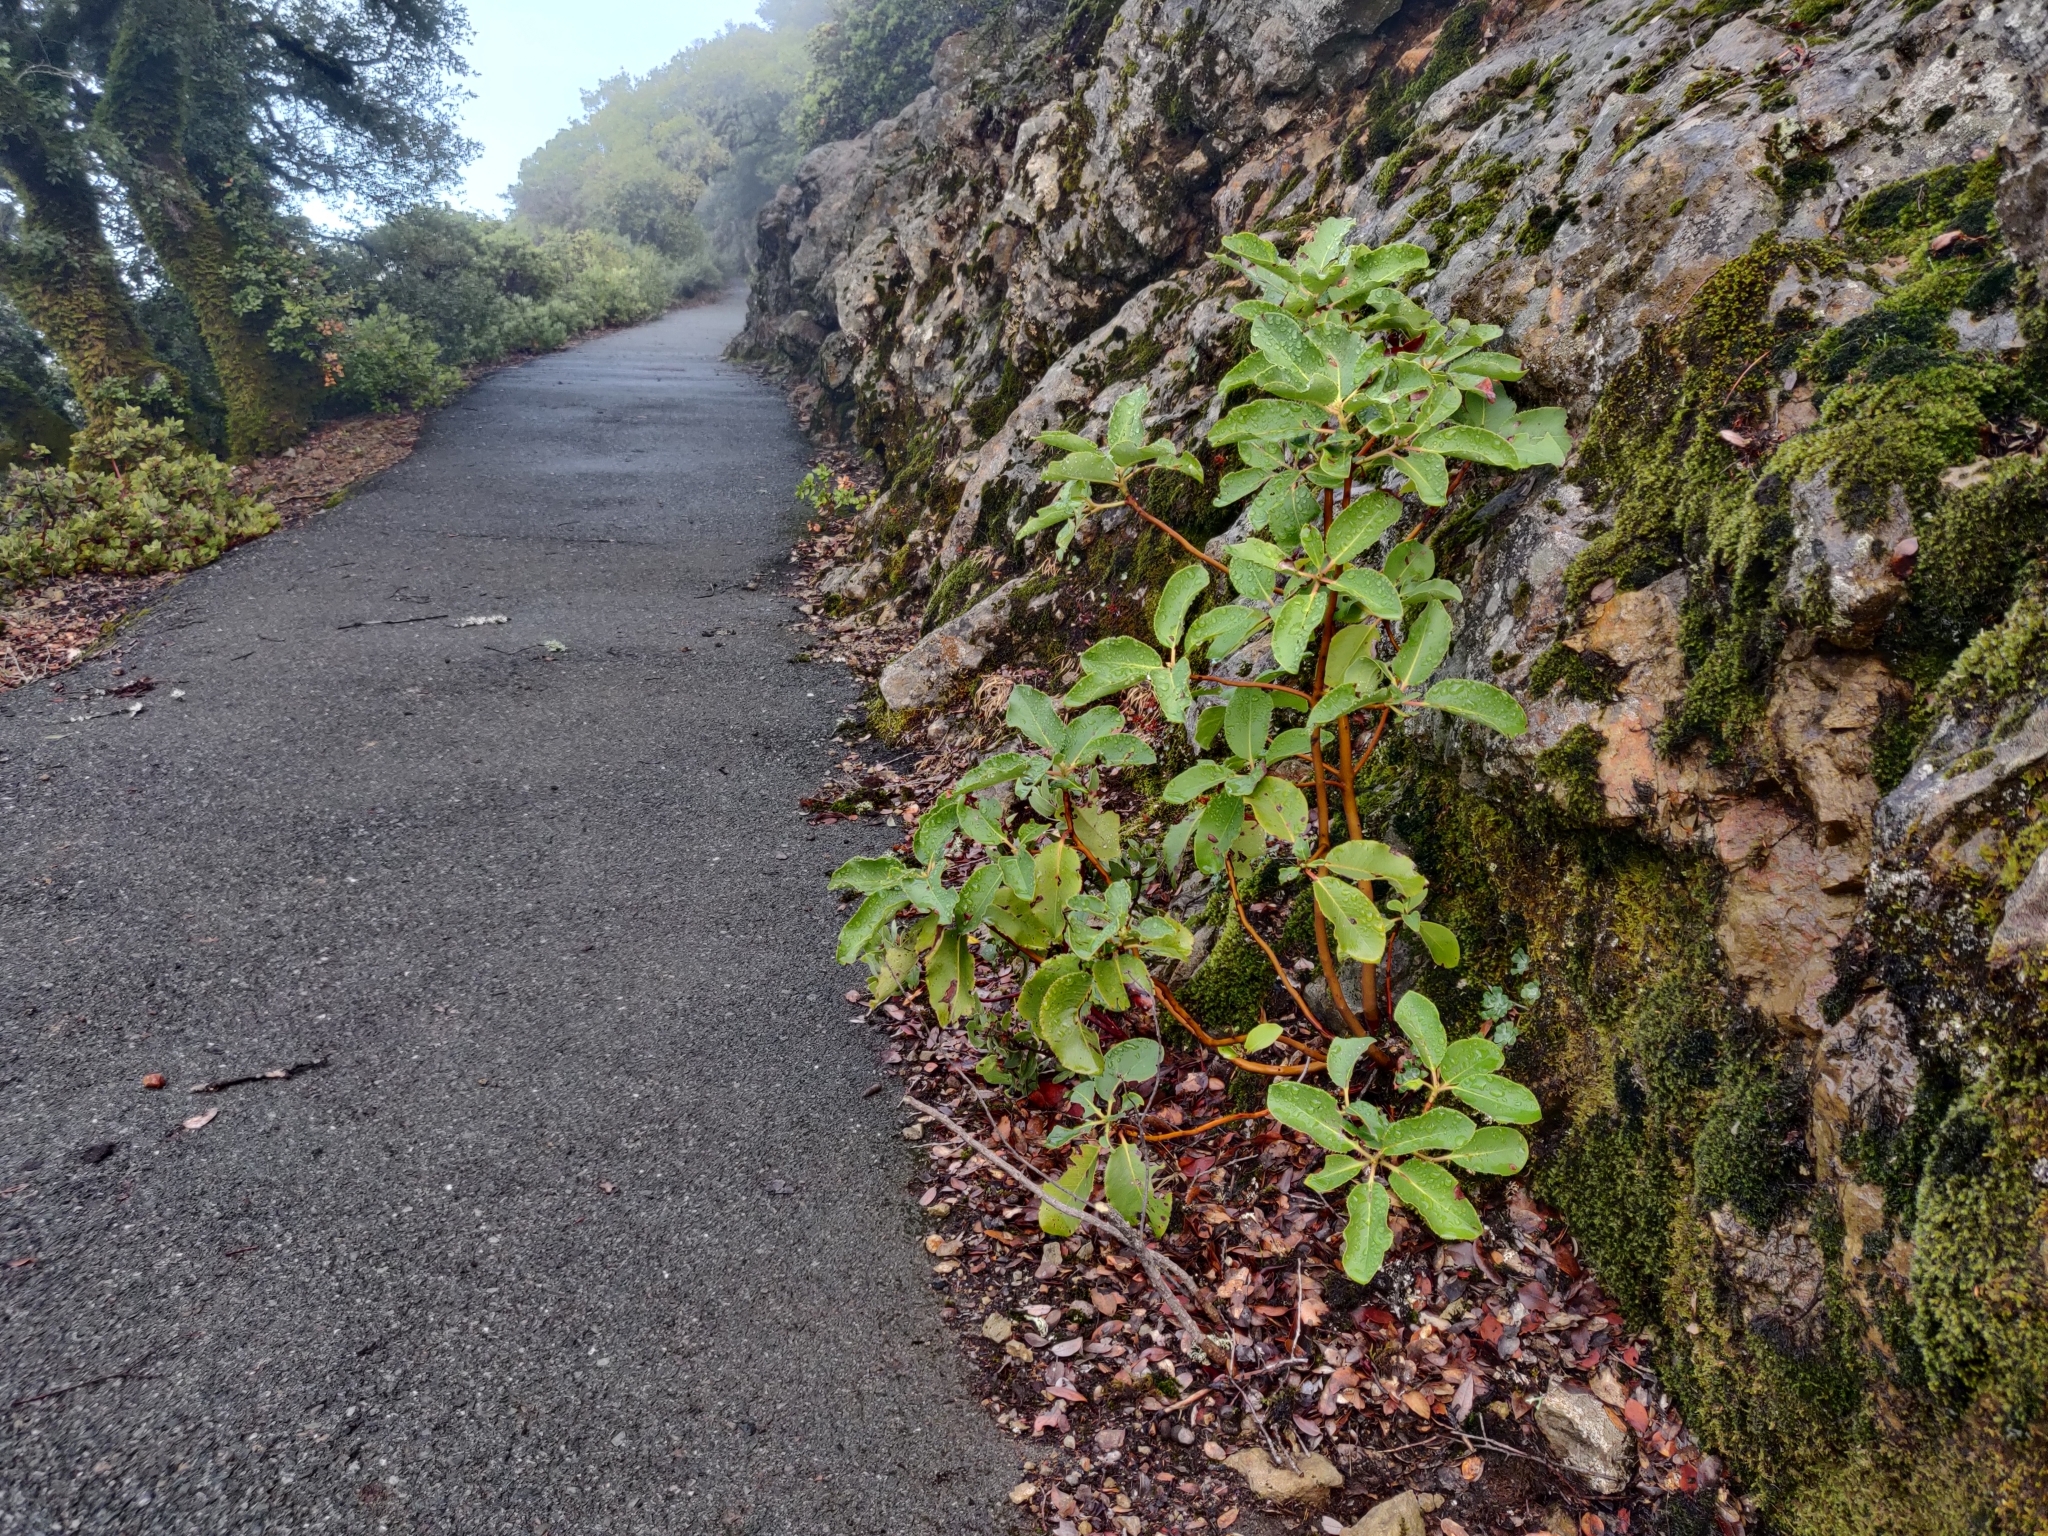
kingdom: Plantae
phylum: Tracheophyta
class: Magnoliopsida
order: Ericales
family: Ericaceae
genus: Arbutus
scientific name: Arbutus menziesii
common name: Pacific madrone
